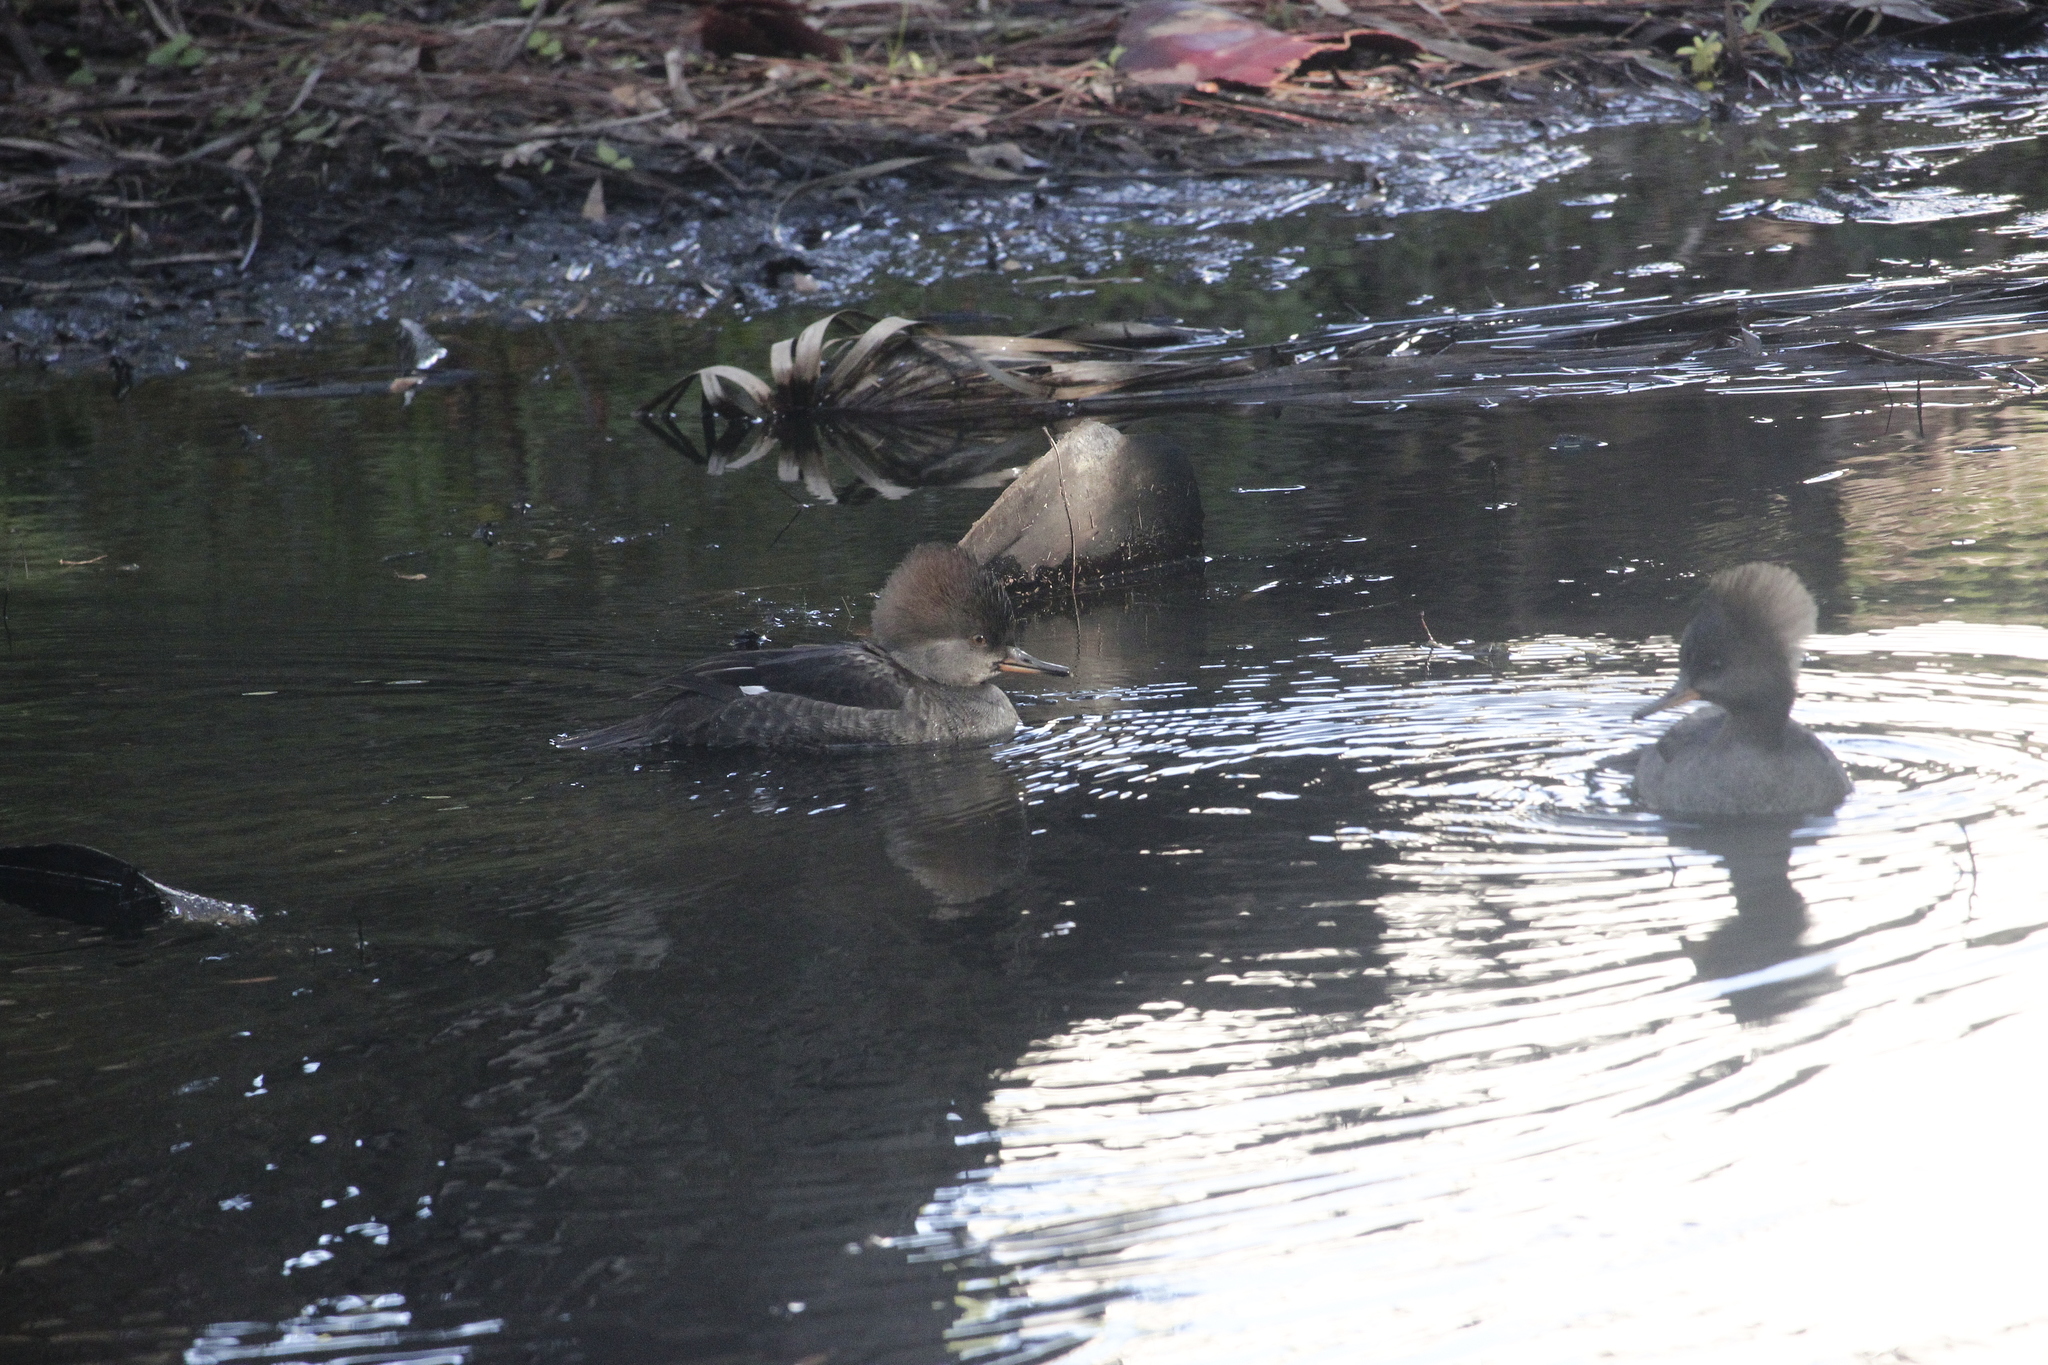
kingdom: Animalia
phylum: Chordata
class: Aves
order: Anseriformes
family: Anatidae
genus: Lophodytes
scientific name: Lophodytes cucullatus
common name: Hooded merganser
